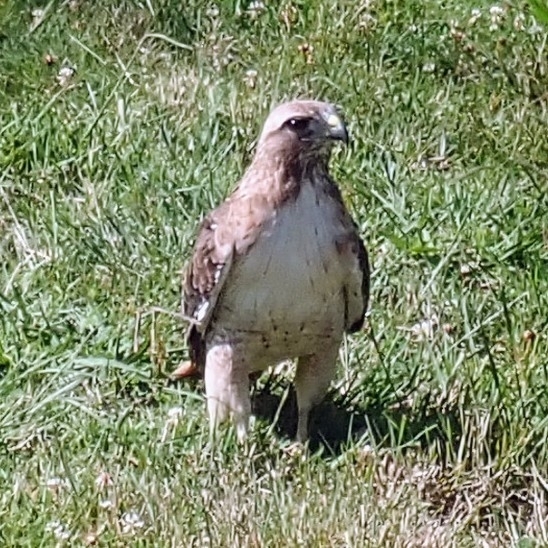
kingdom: Animalia
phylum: Chordata
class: Aves
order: Accipitriformes
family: Accipitridae
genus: Buteo
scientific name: Buteo jamaicensis
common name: Red-tailed hawk
